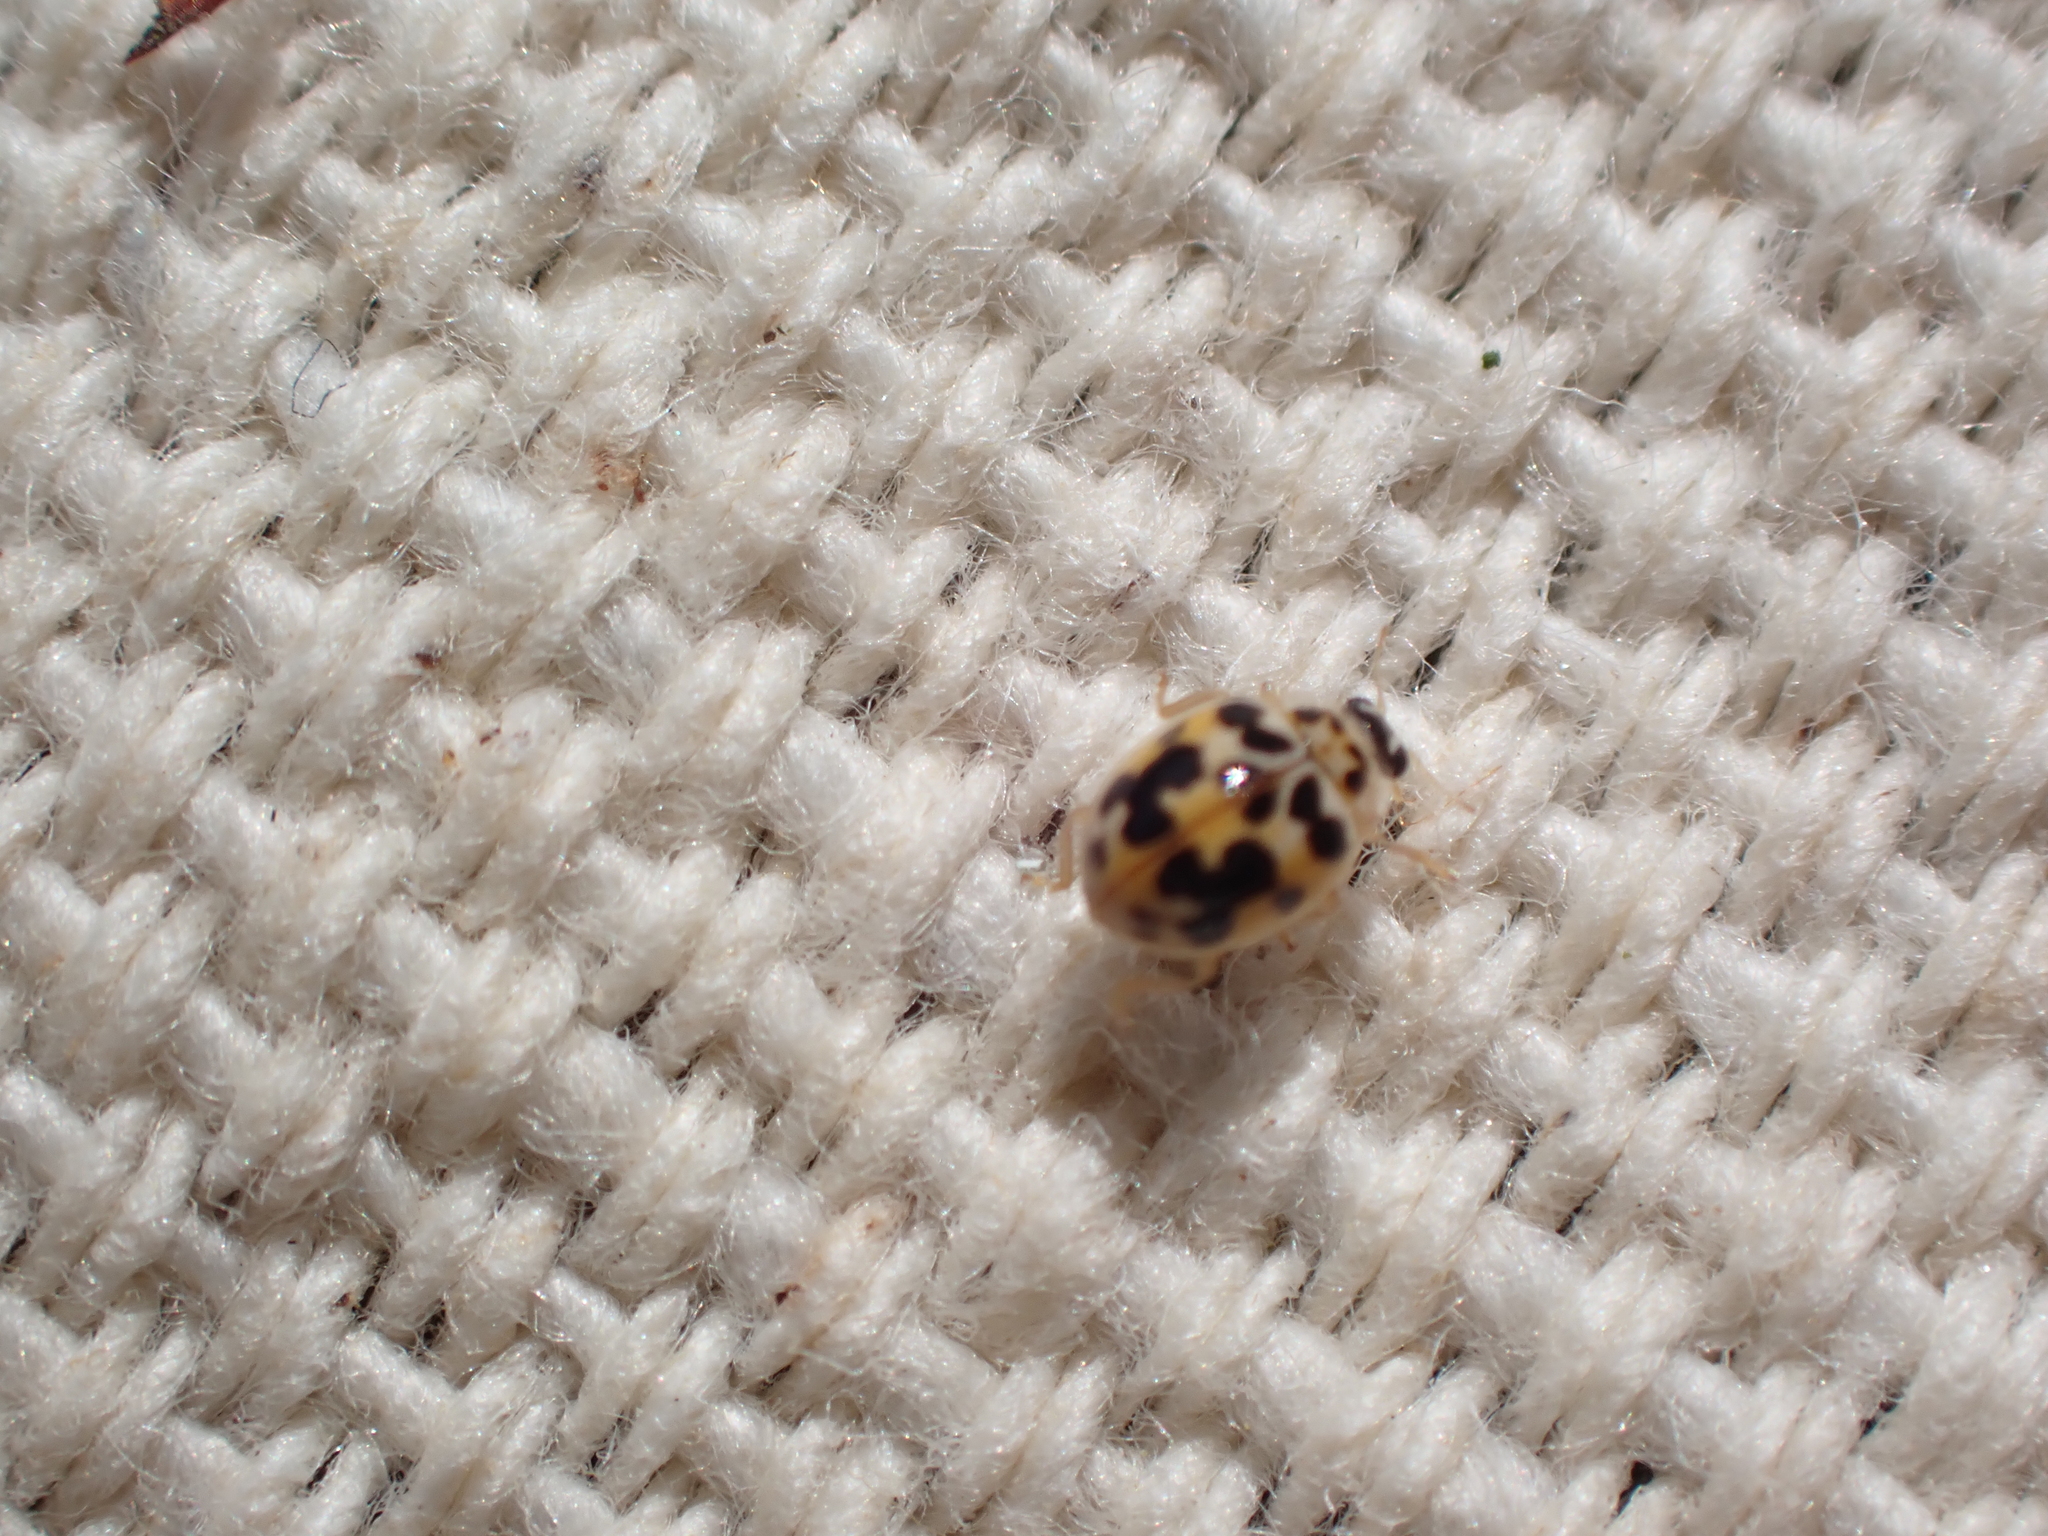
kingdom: Animalia
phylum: Arthropoda
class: Insecta
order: Coleoptera
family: Coccinellidae
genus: Psyllobora
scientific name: Psyllobora vigintimaculata
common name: Ladybird beetle
